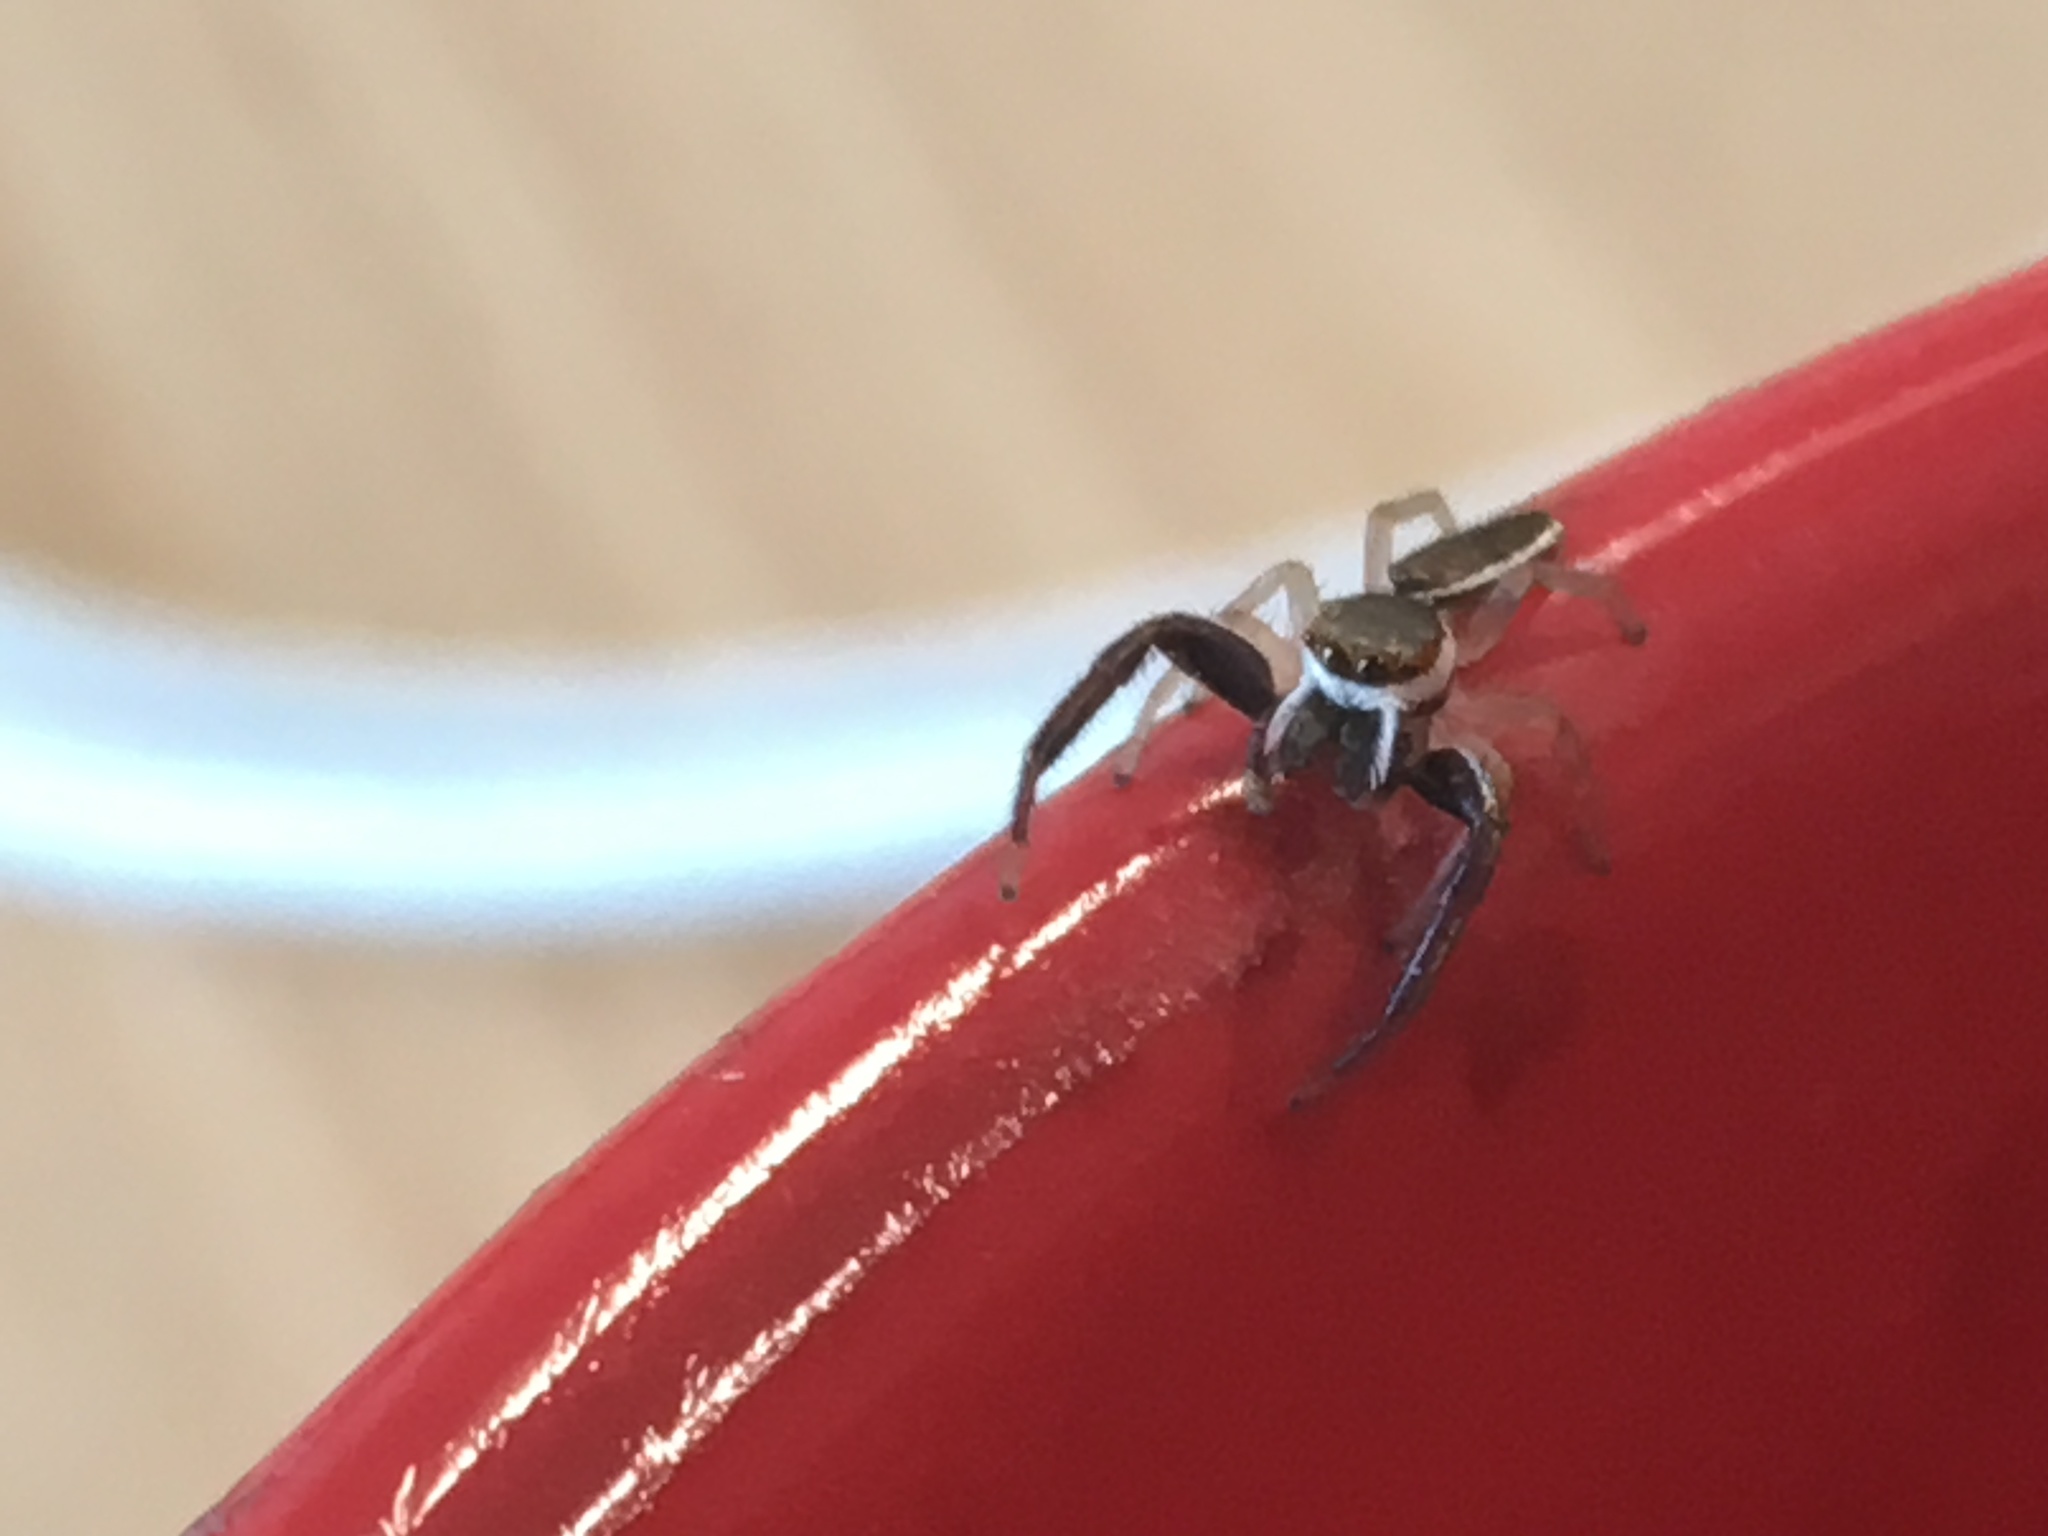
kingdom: Animalia
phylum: Arthropoda
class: Arachnida
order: Araneae
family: Salticidae
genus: Hentzia
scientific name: Hentzia palmarum
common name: Common hentz jumping spider
